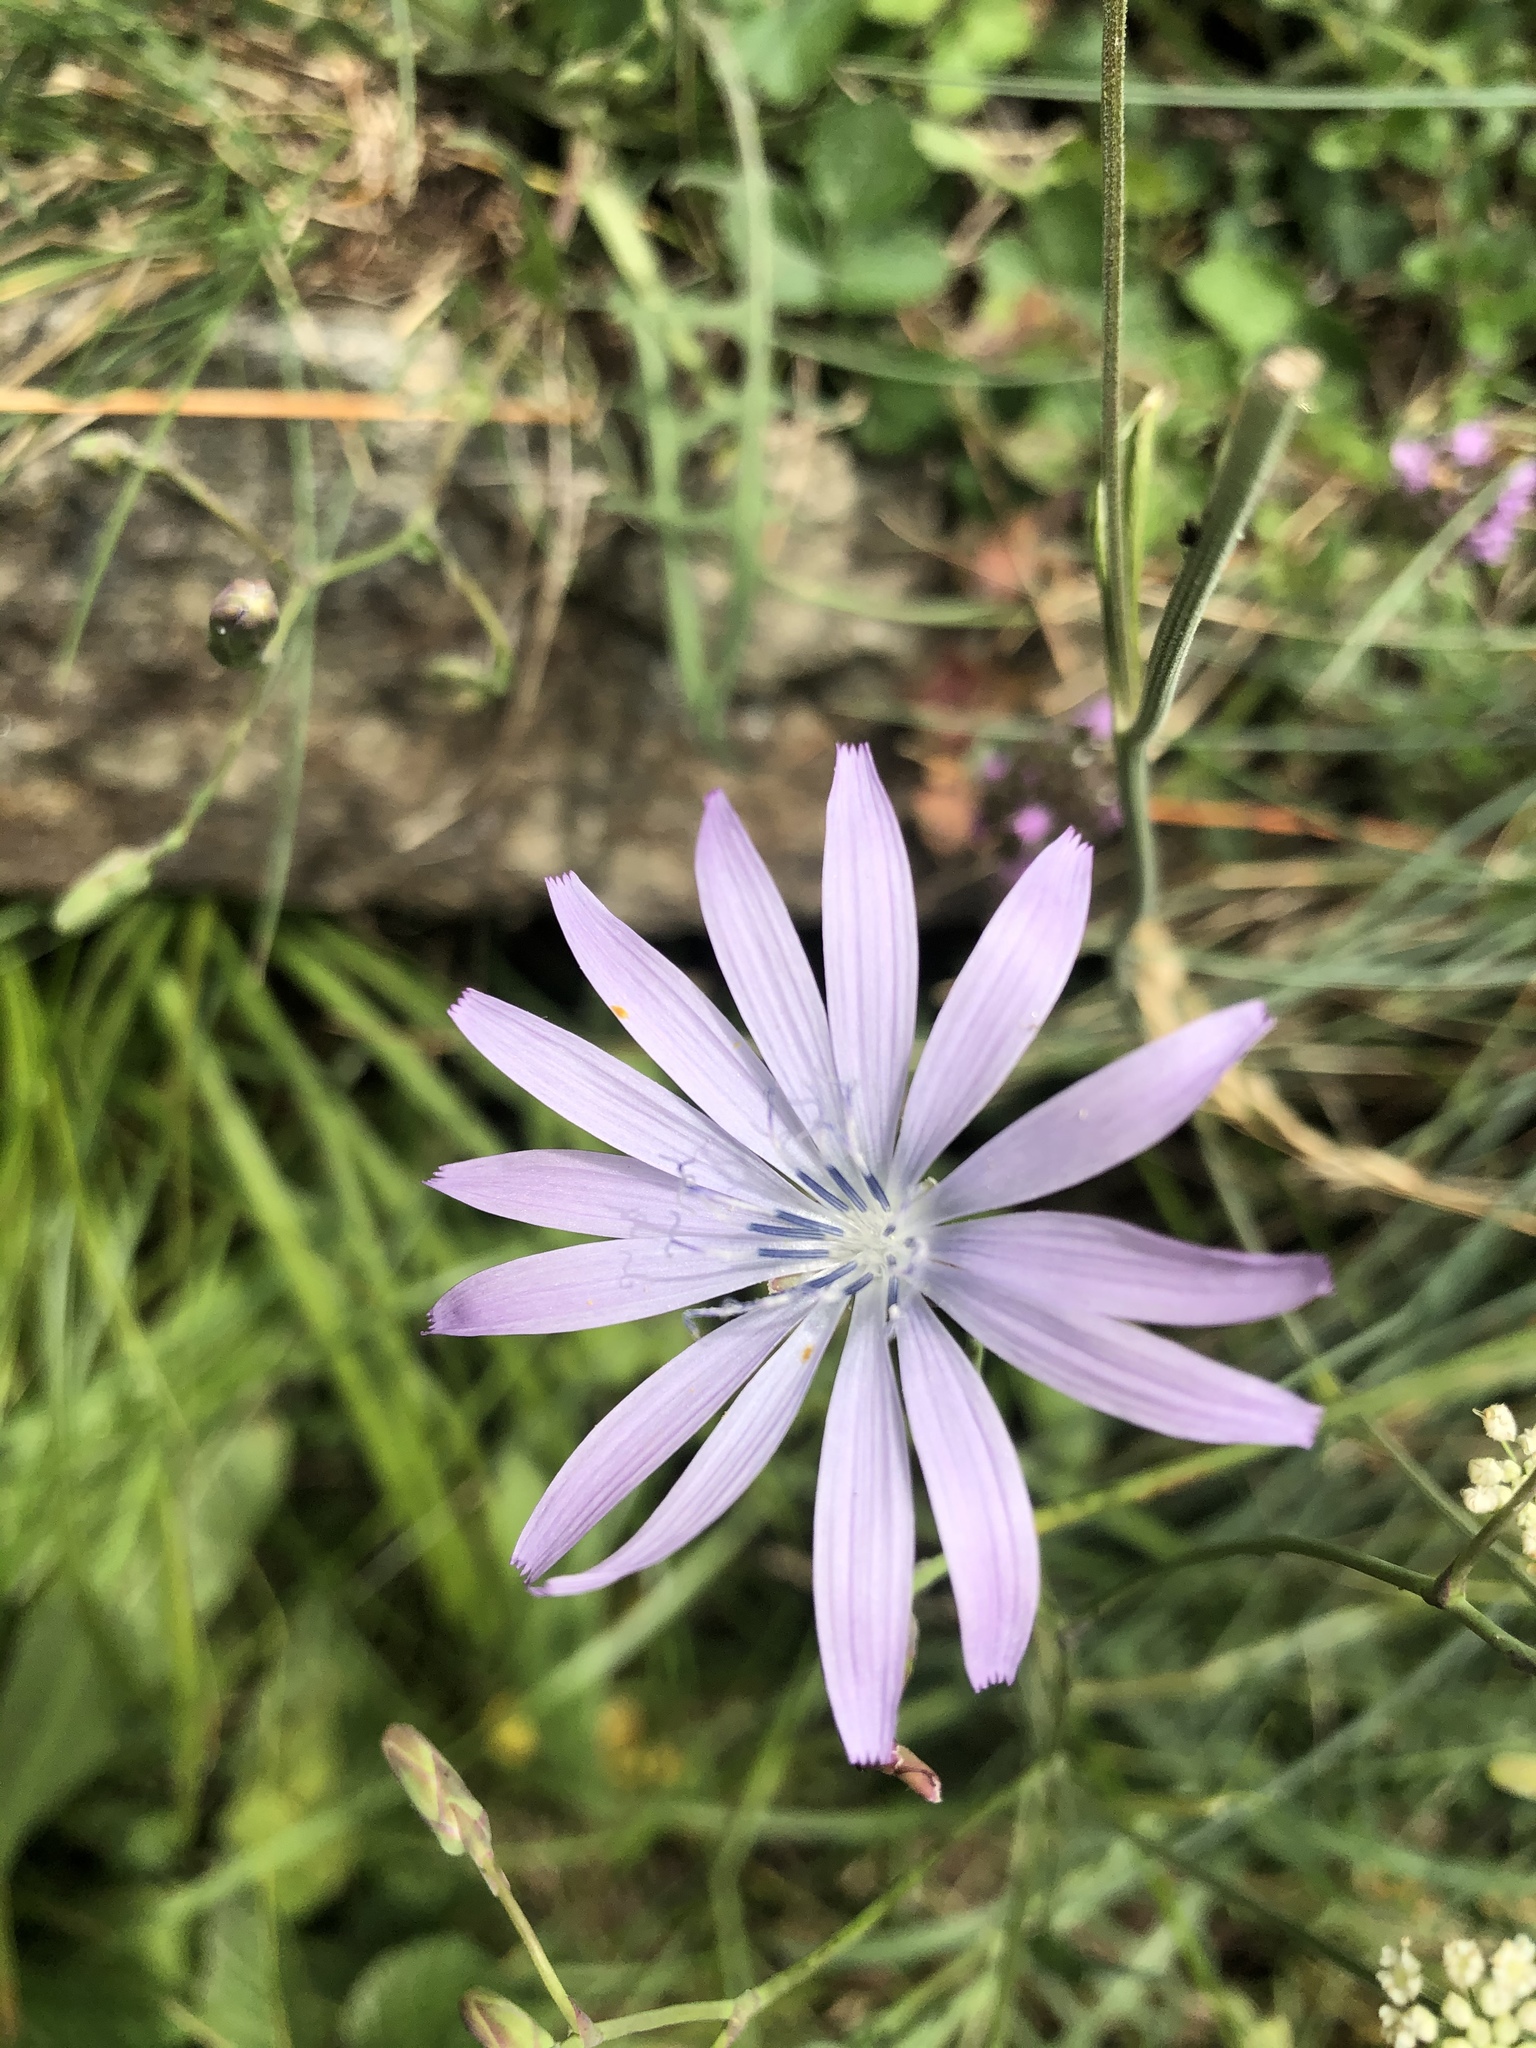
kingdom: Plantae
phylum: Tracheophyta
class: Magnoliopsida
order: Asterales
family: Asteraceae
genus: Lactuca
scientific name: Lactuca perennis
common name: Mountain lettuce
